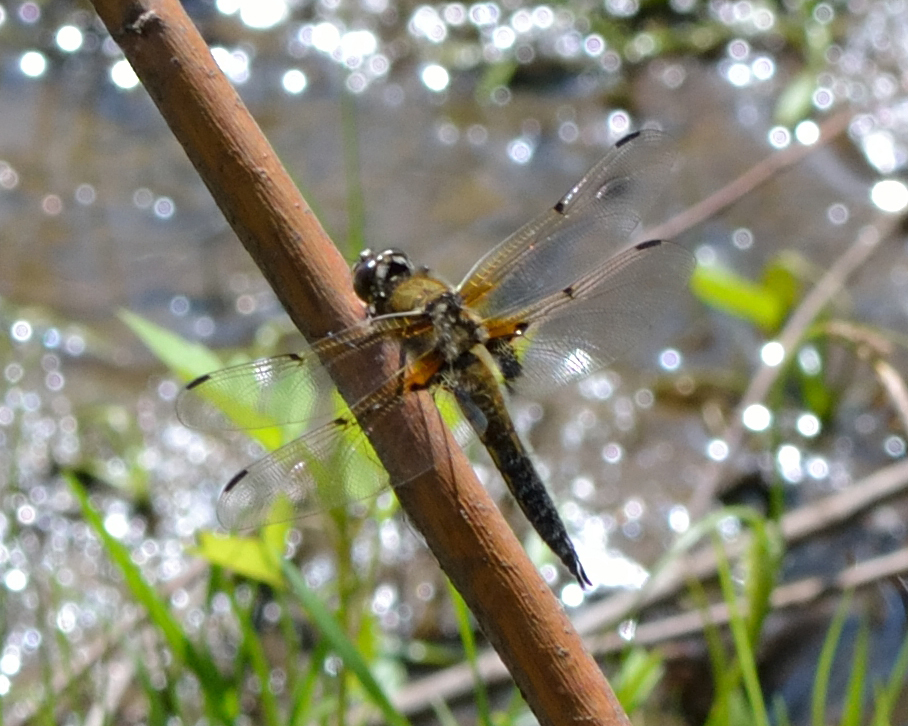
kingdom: Animalia
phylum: Arthropoda
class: Insecta
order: Odonata
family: Libellulidae
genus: Libellula
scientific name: Libellula quadrimaculata
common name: Four-spotted chaser
